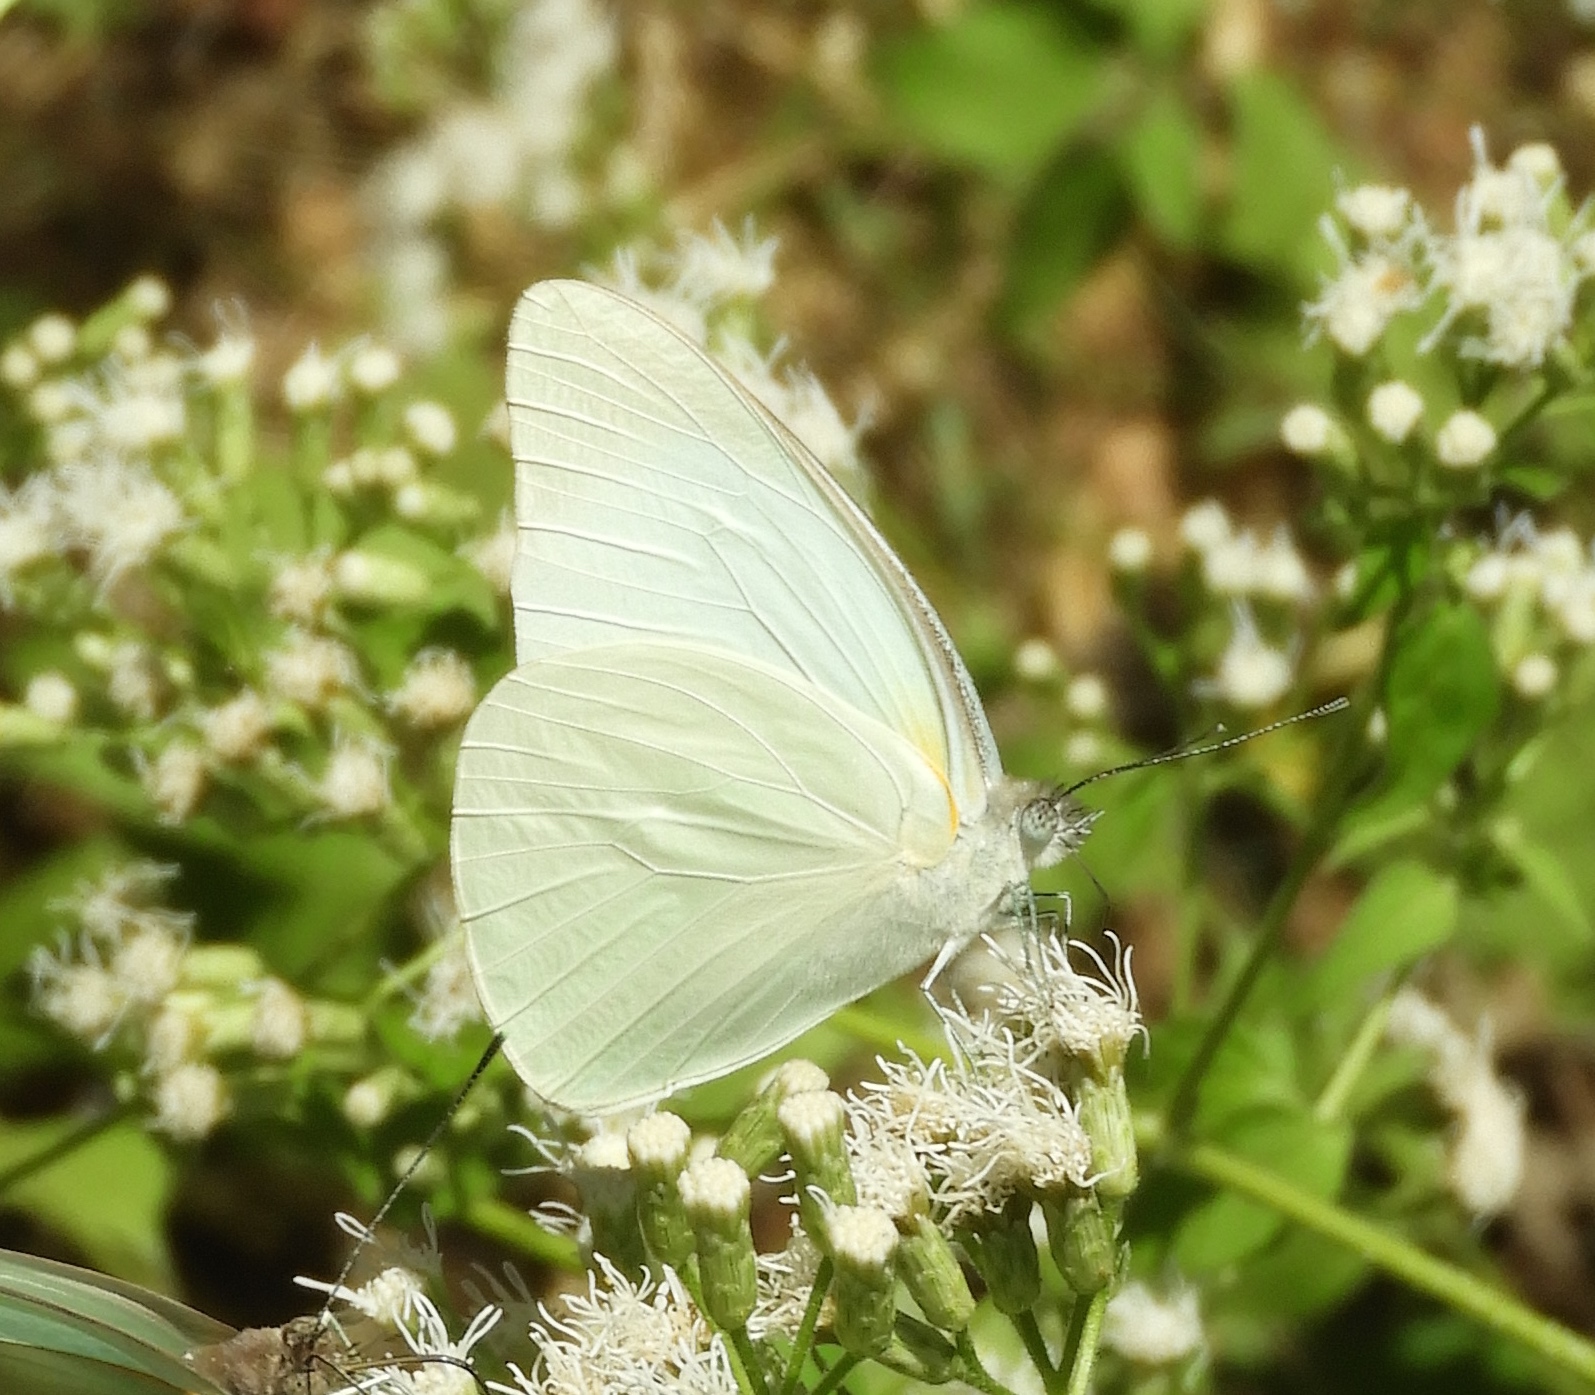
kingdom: Animalia
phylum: Arthropoda
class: Insecta
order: Lepidoptera
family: Pieridae
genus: Glutophrissa
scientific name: Glutophrissa drusilla
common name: Florida white
